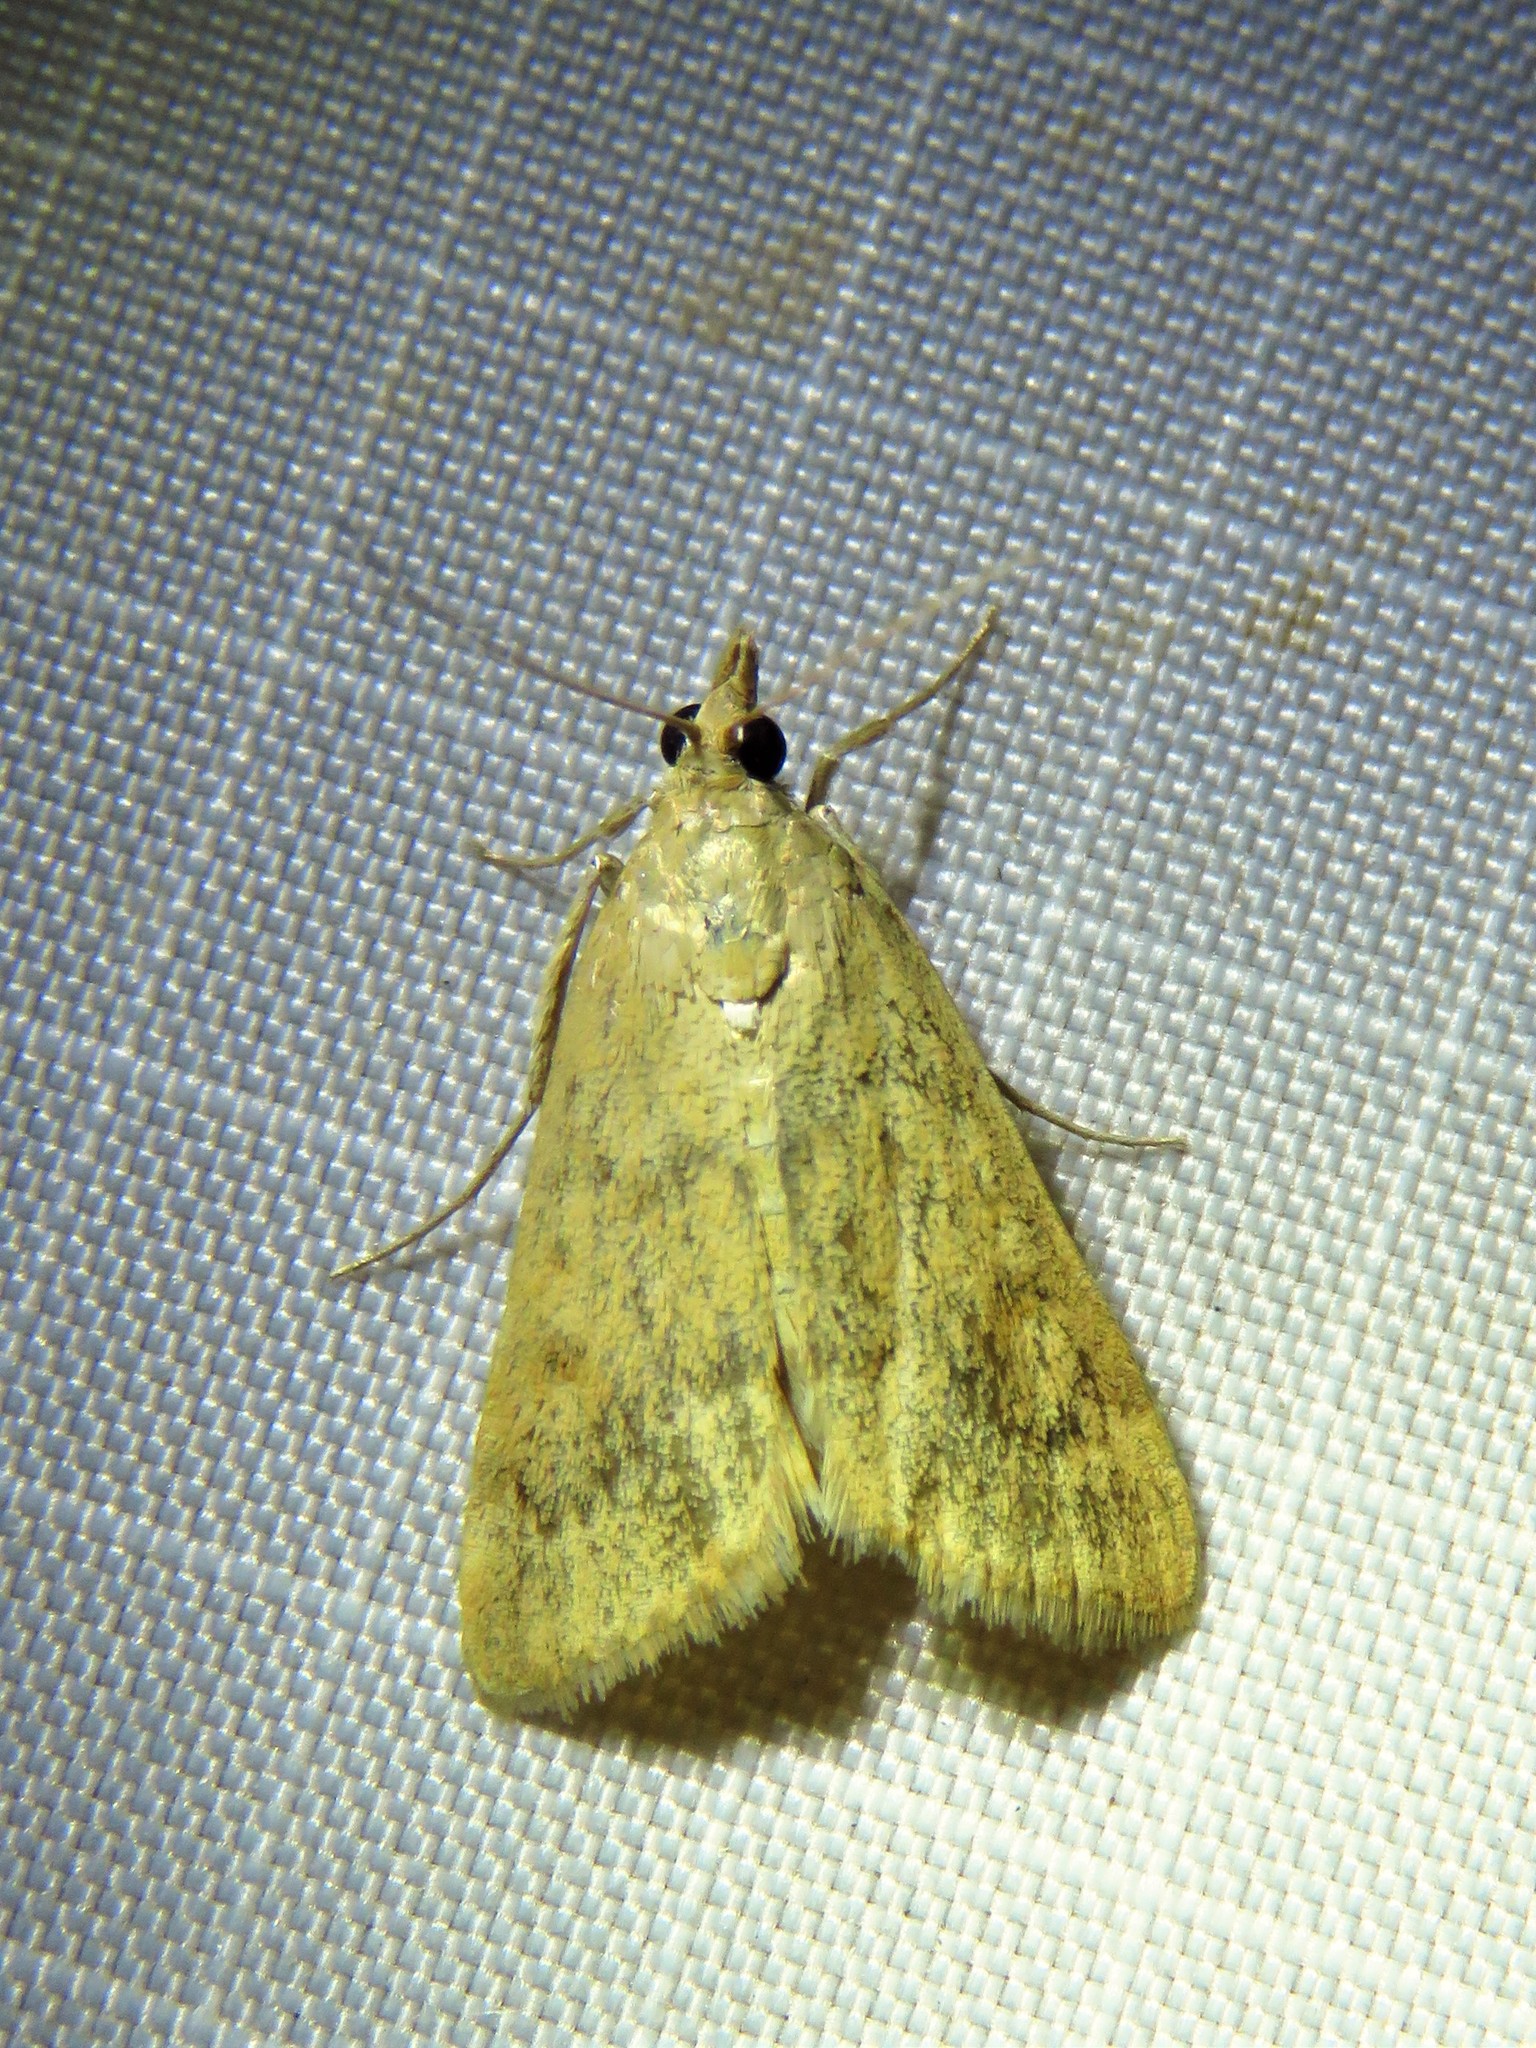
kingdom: Animalia
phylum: Arthropoda
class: Insecta
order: Lepidoptera
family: Crambidae
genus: Achyra
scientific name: Achyra rantalis
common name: Garden webworm
